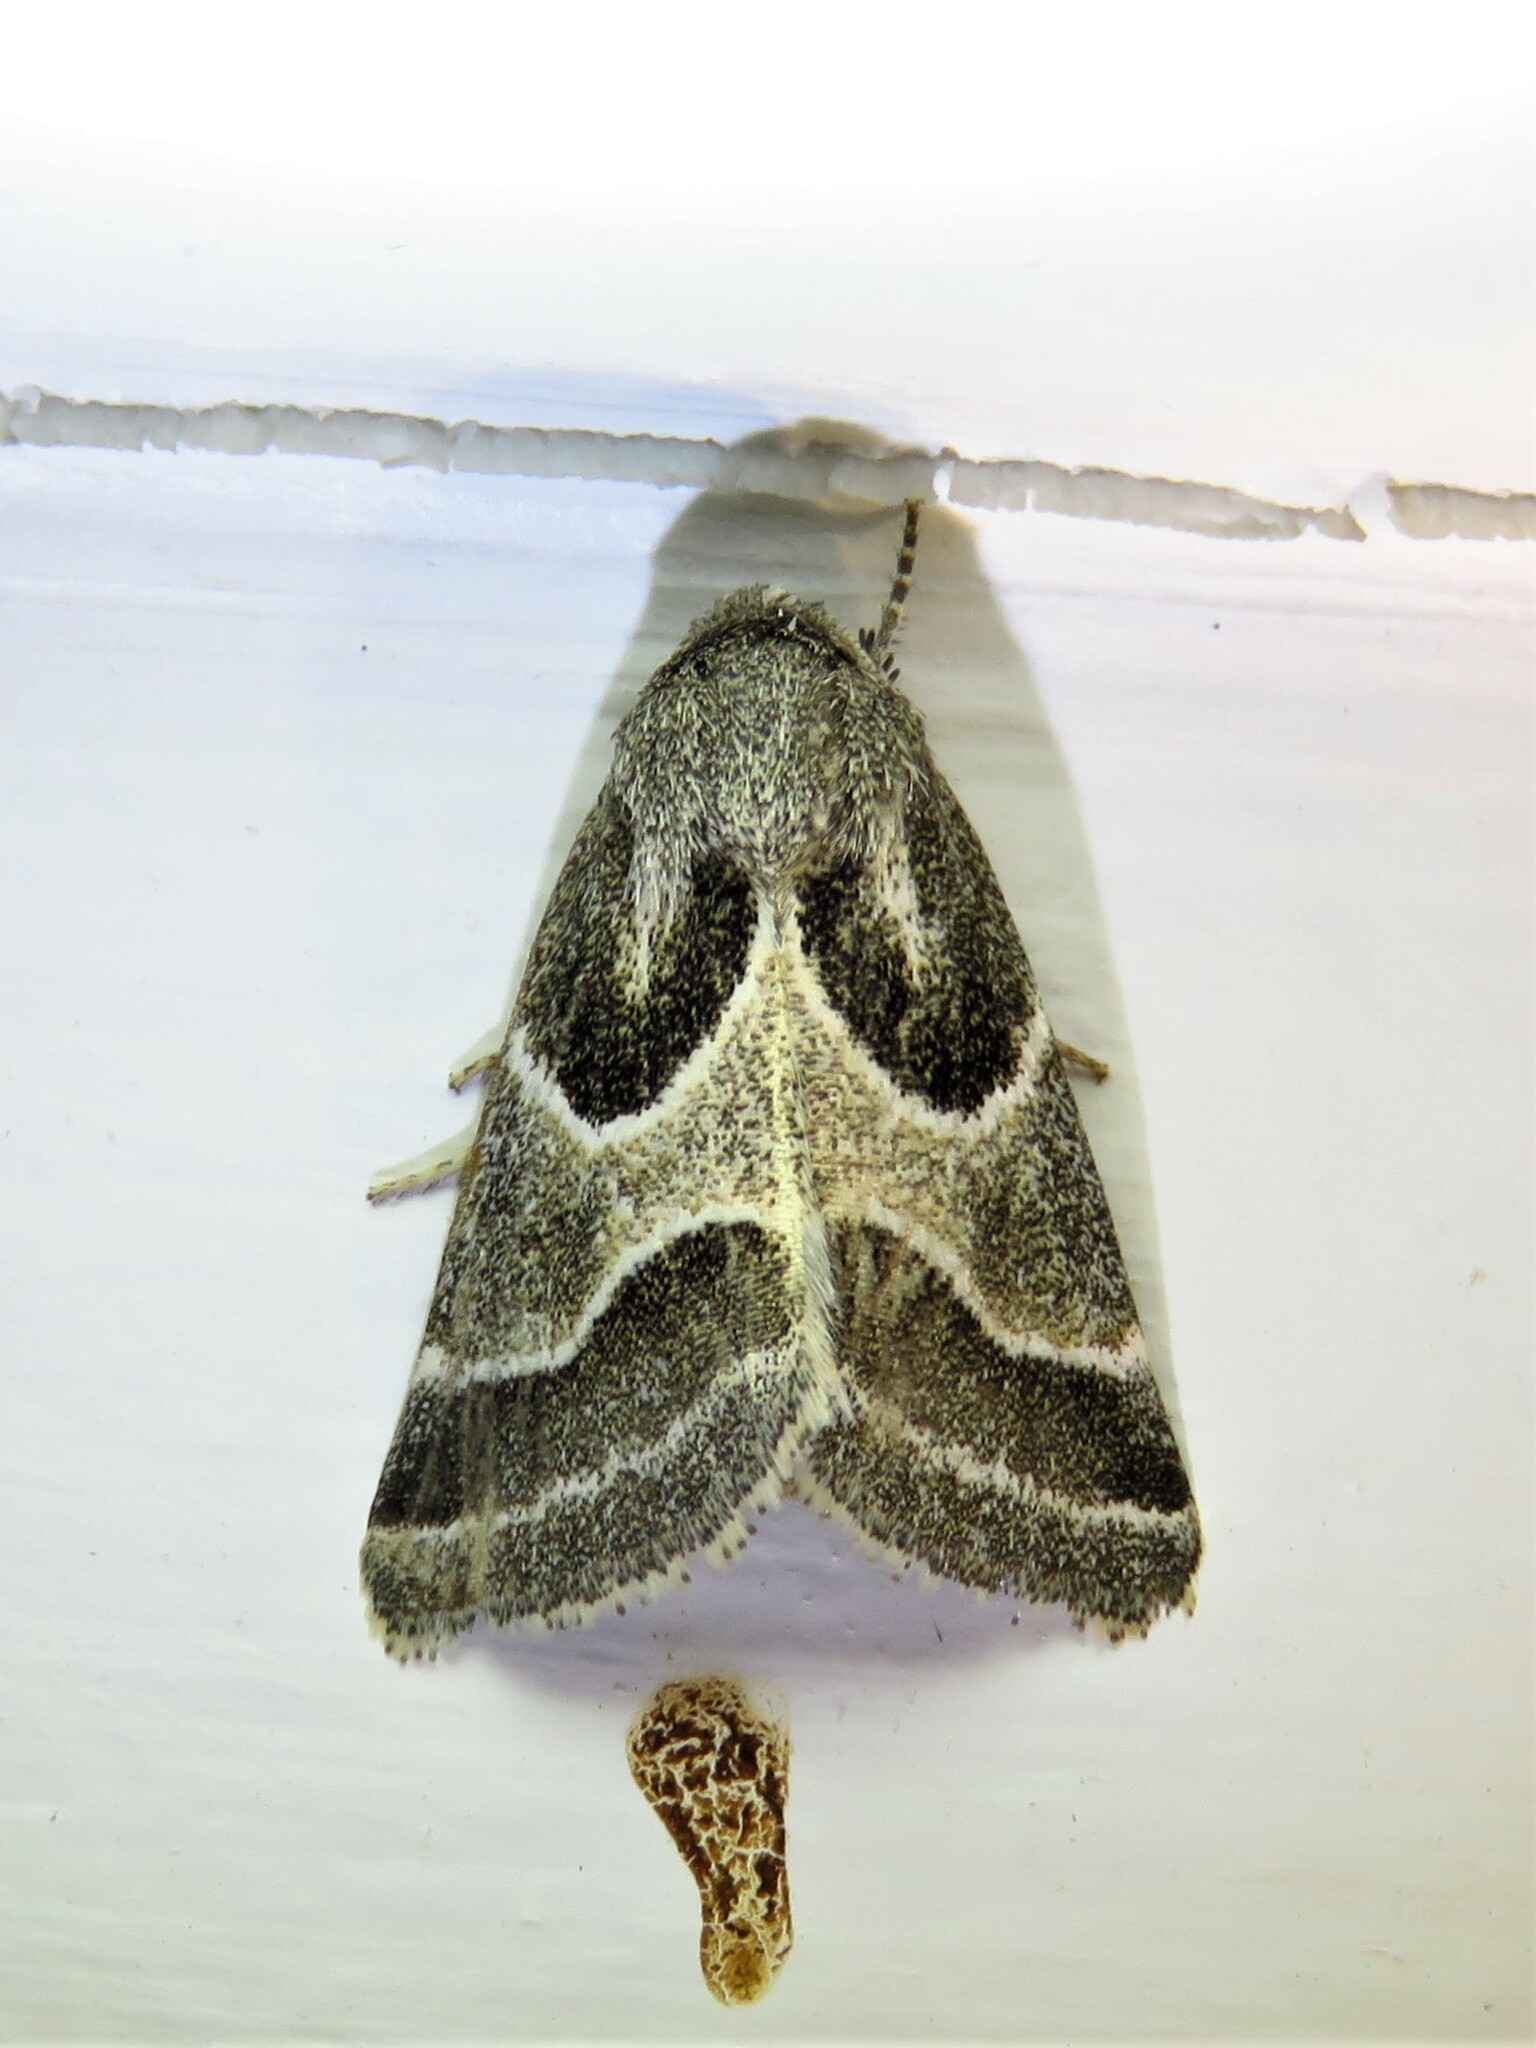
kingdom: Animalia
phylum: Arthropoda
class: Insecta
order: Lepidoptera
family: Noctuidae
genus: Schinia
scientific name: Schinia rivulosa
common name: Scarce meal-moth
